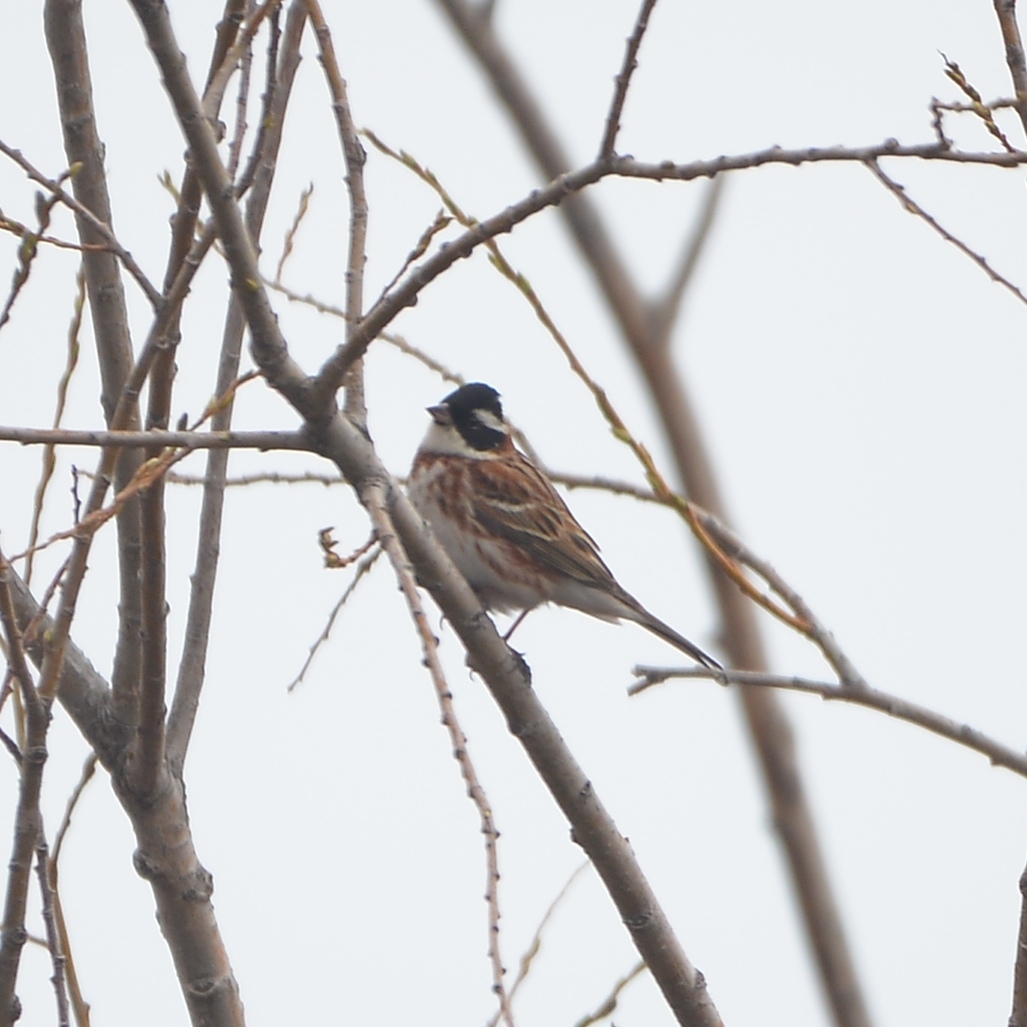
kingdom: Animalia
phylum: Chordata
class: Aves
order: Passeriformes
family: Emberizidae
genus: Emberiza
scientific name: Emberiza rustica
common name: Rustic bunting
